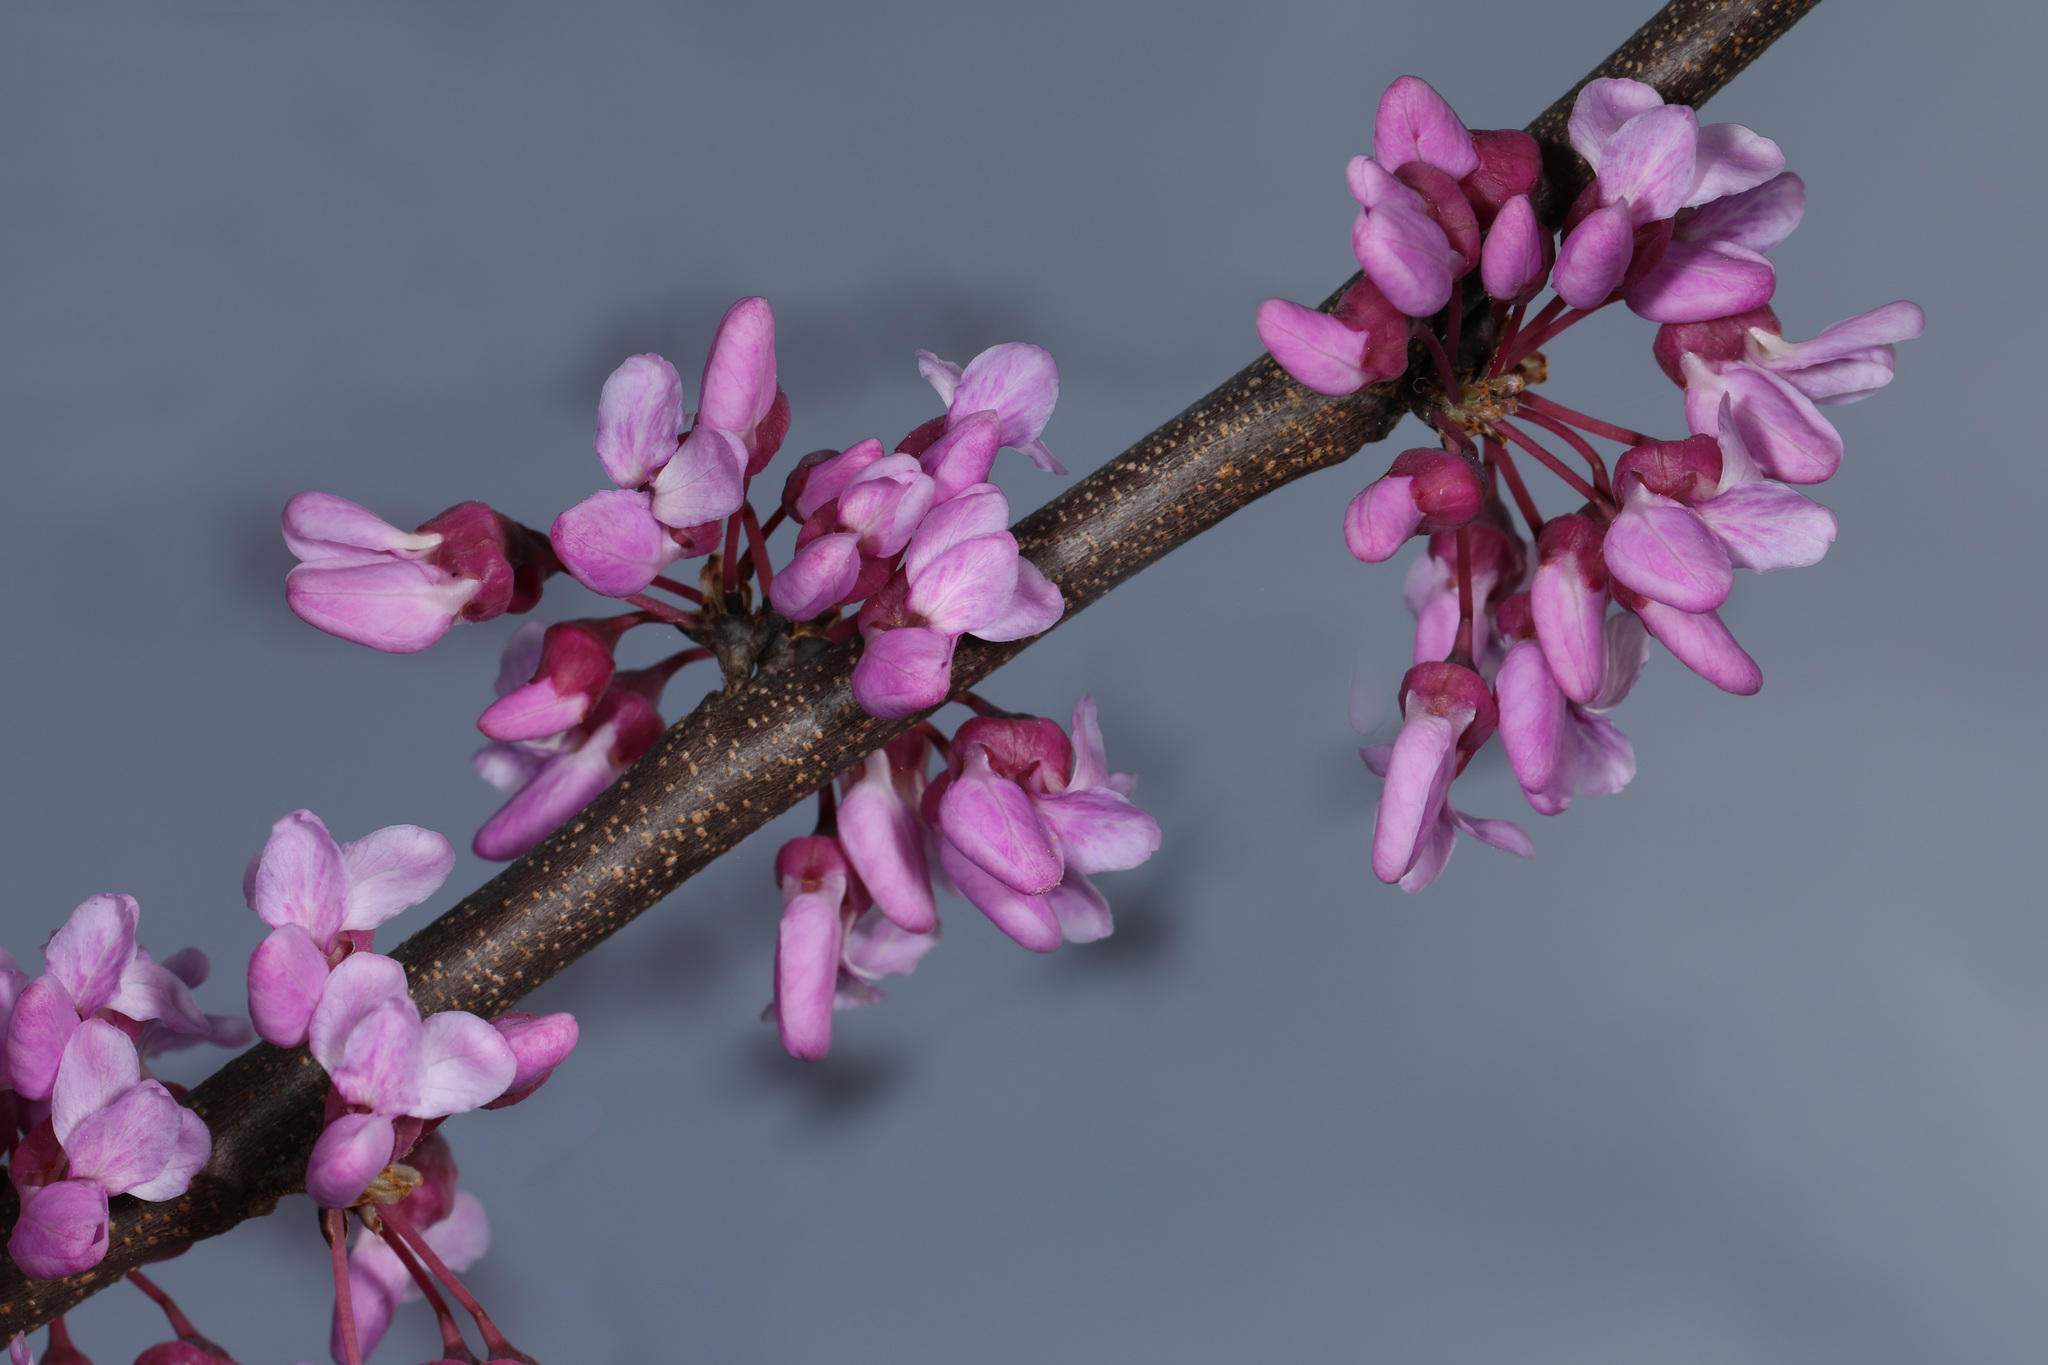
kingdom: Plantae
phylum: Tracheophyta
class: Magnoliopsida
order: Fabales
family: Fabaceae
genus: Cercis
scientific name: Cercis canadensis
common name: Eastern redbud
